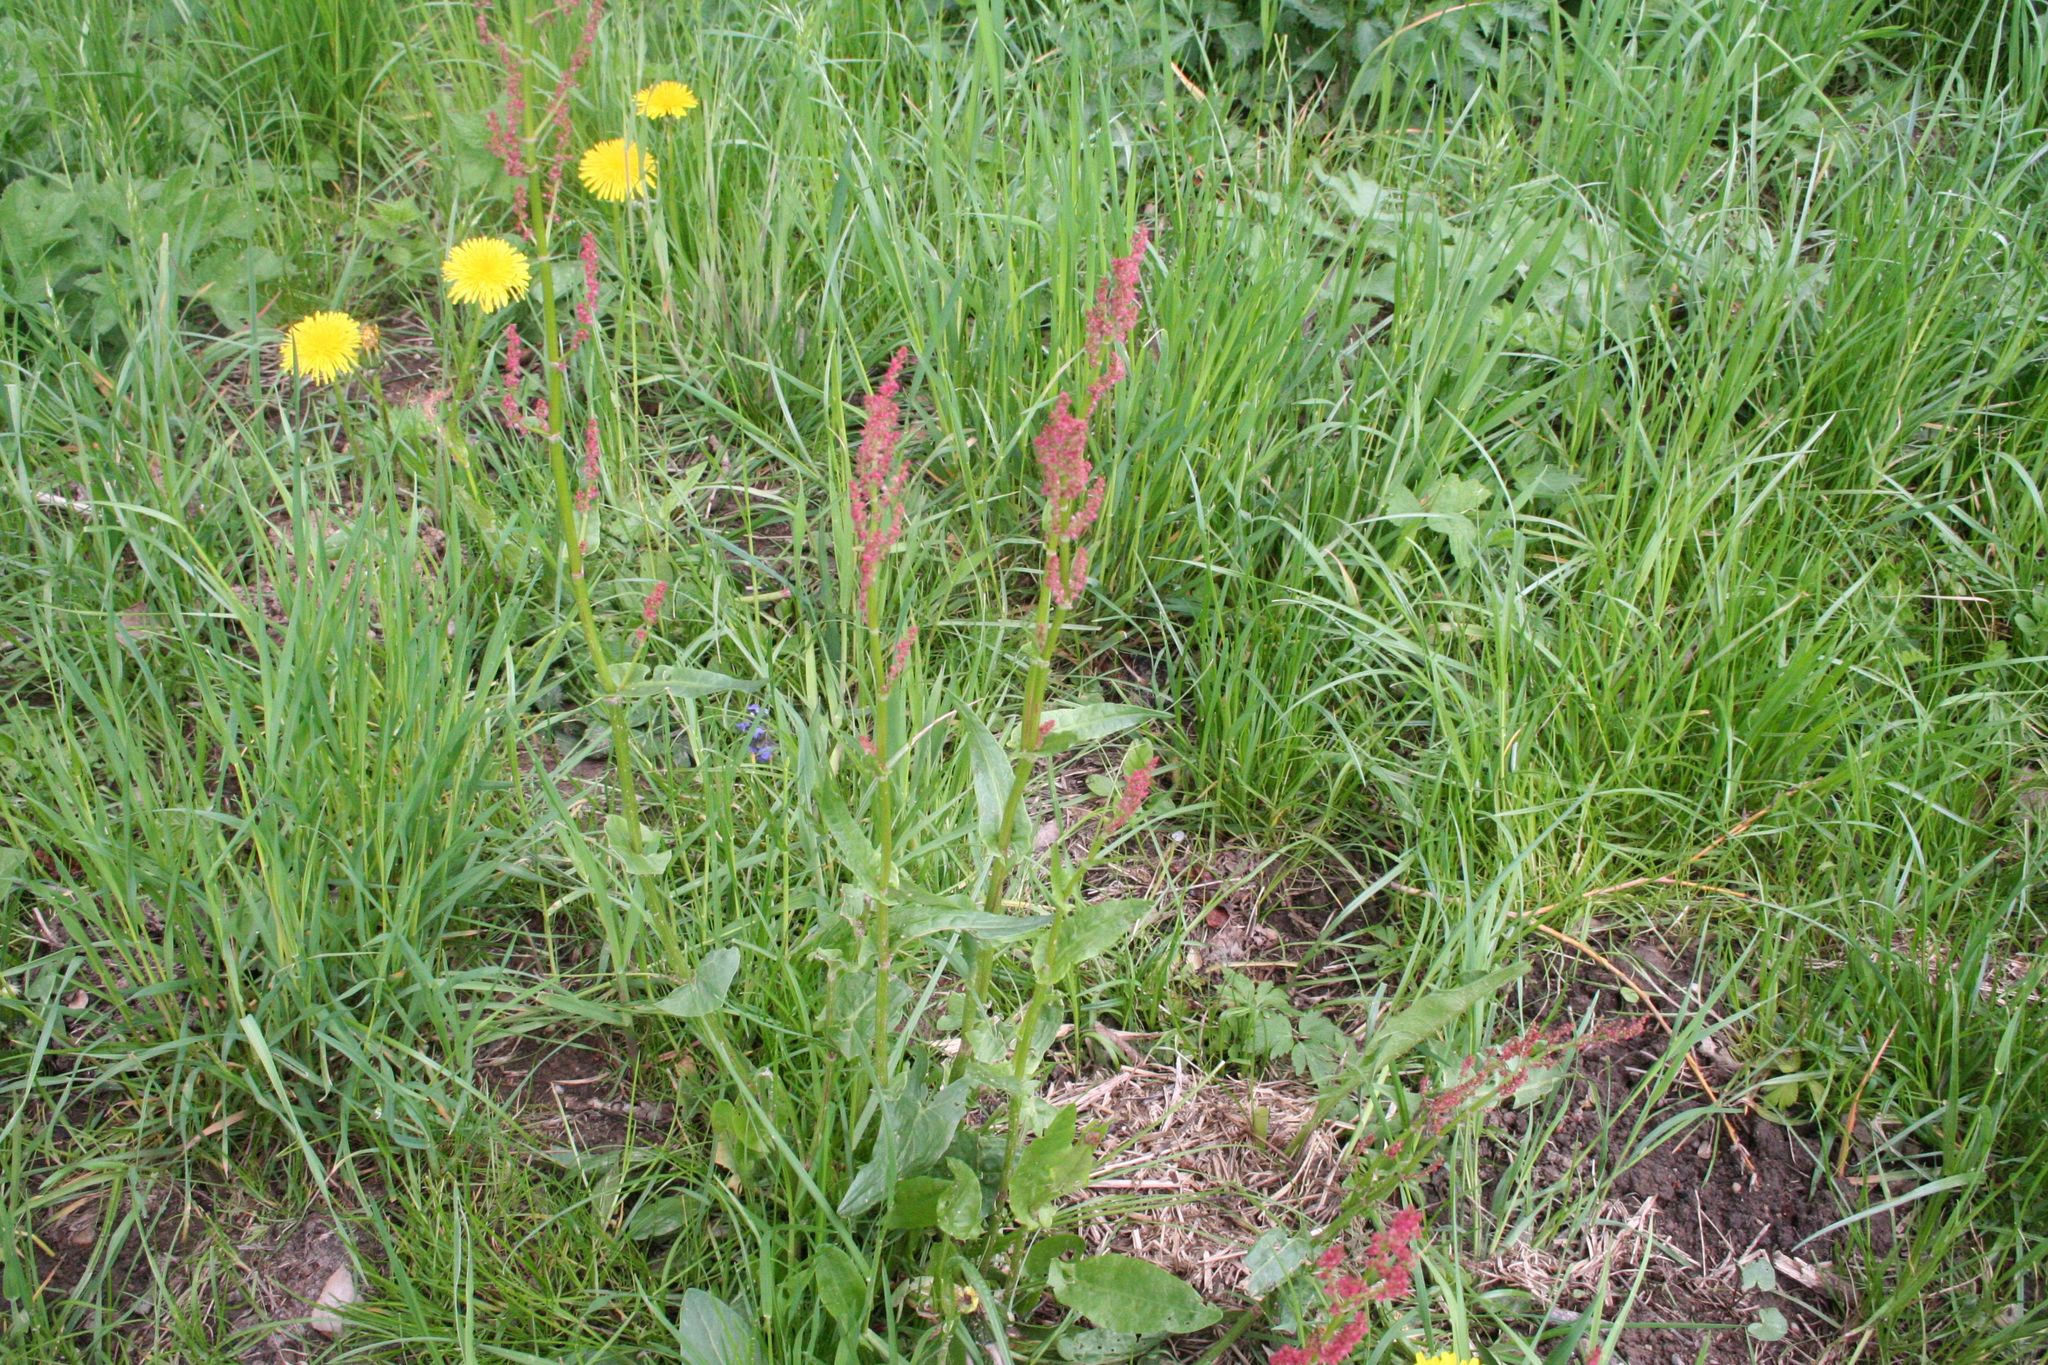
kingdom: Plantae
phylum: Tracheophyta
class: Magnoliopsida
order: Caryophyllales
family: Polygonaceae
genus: Rumex
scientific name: Rumex acetosa
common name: Garden sorrel
